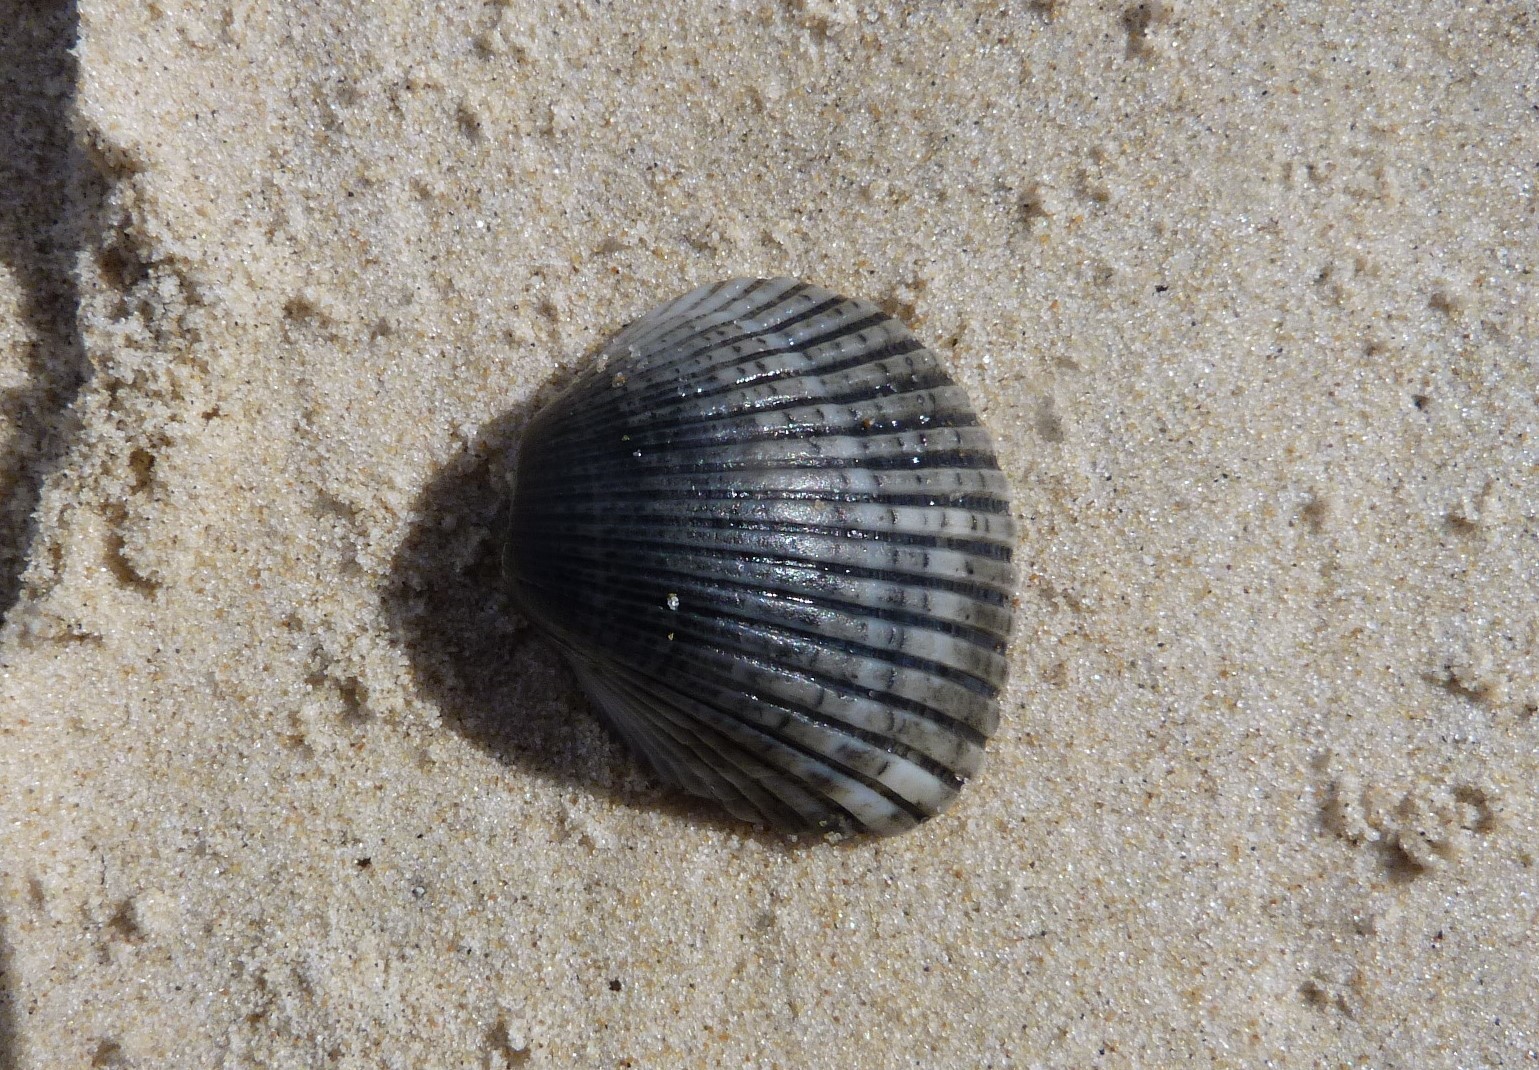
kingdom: Animalia
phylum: Mollusca
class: Bivalvia
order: Arcida
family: Arcidae
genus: Anadara
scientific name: Anadara trapezia
